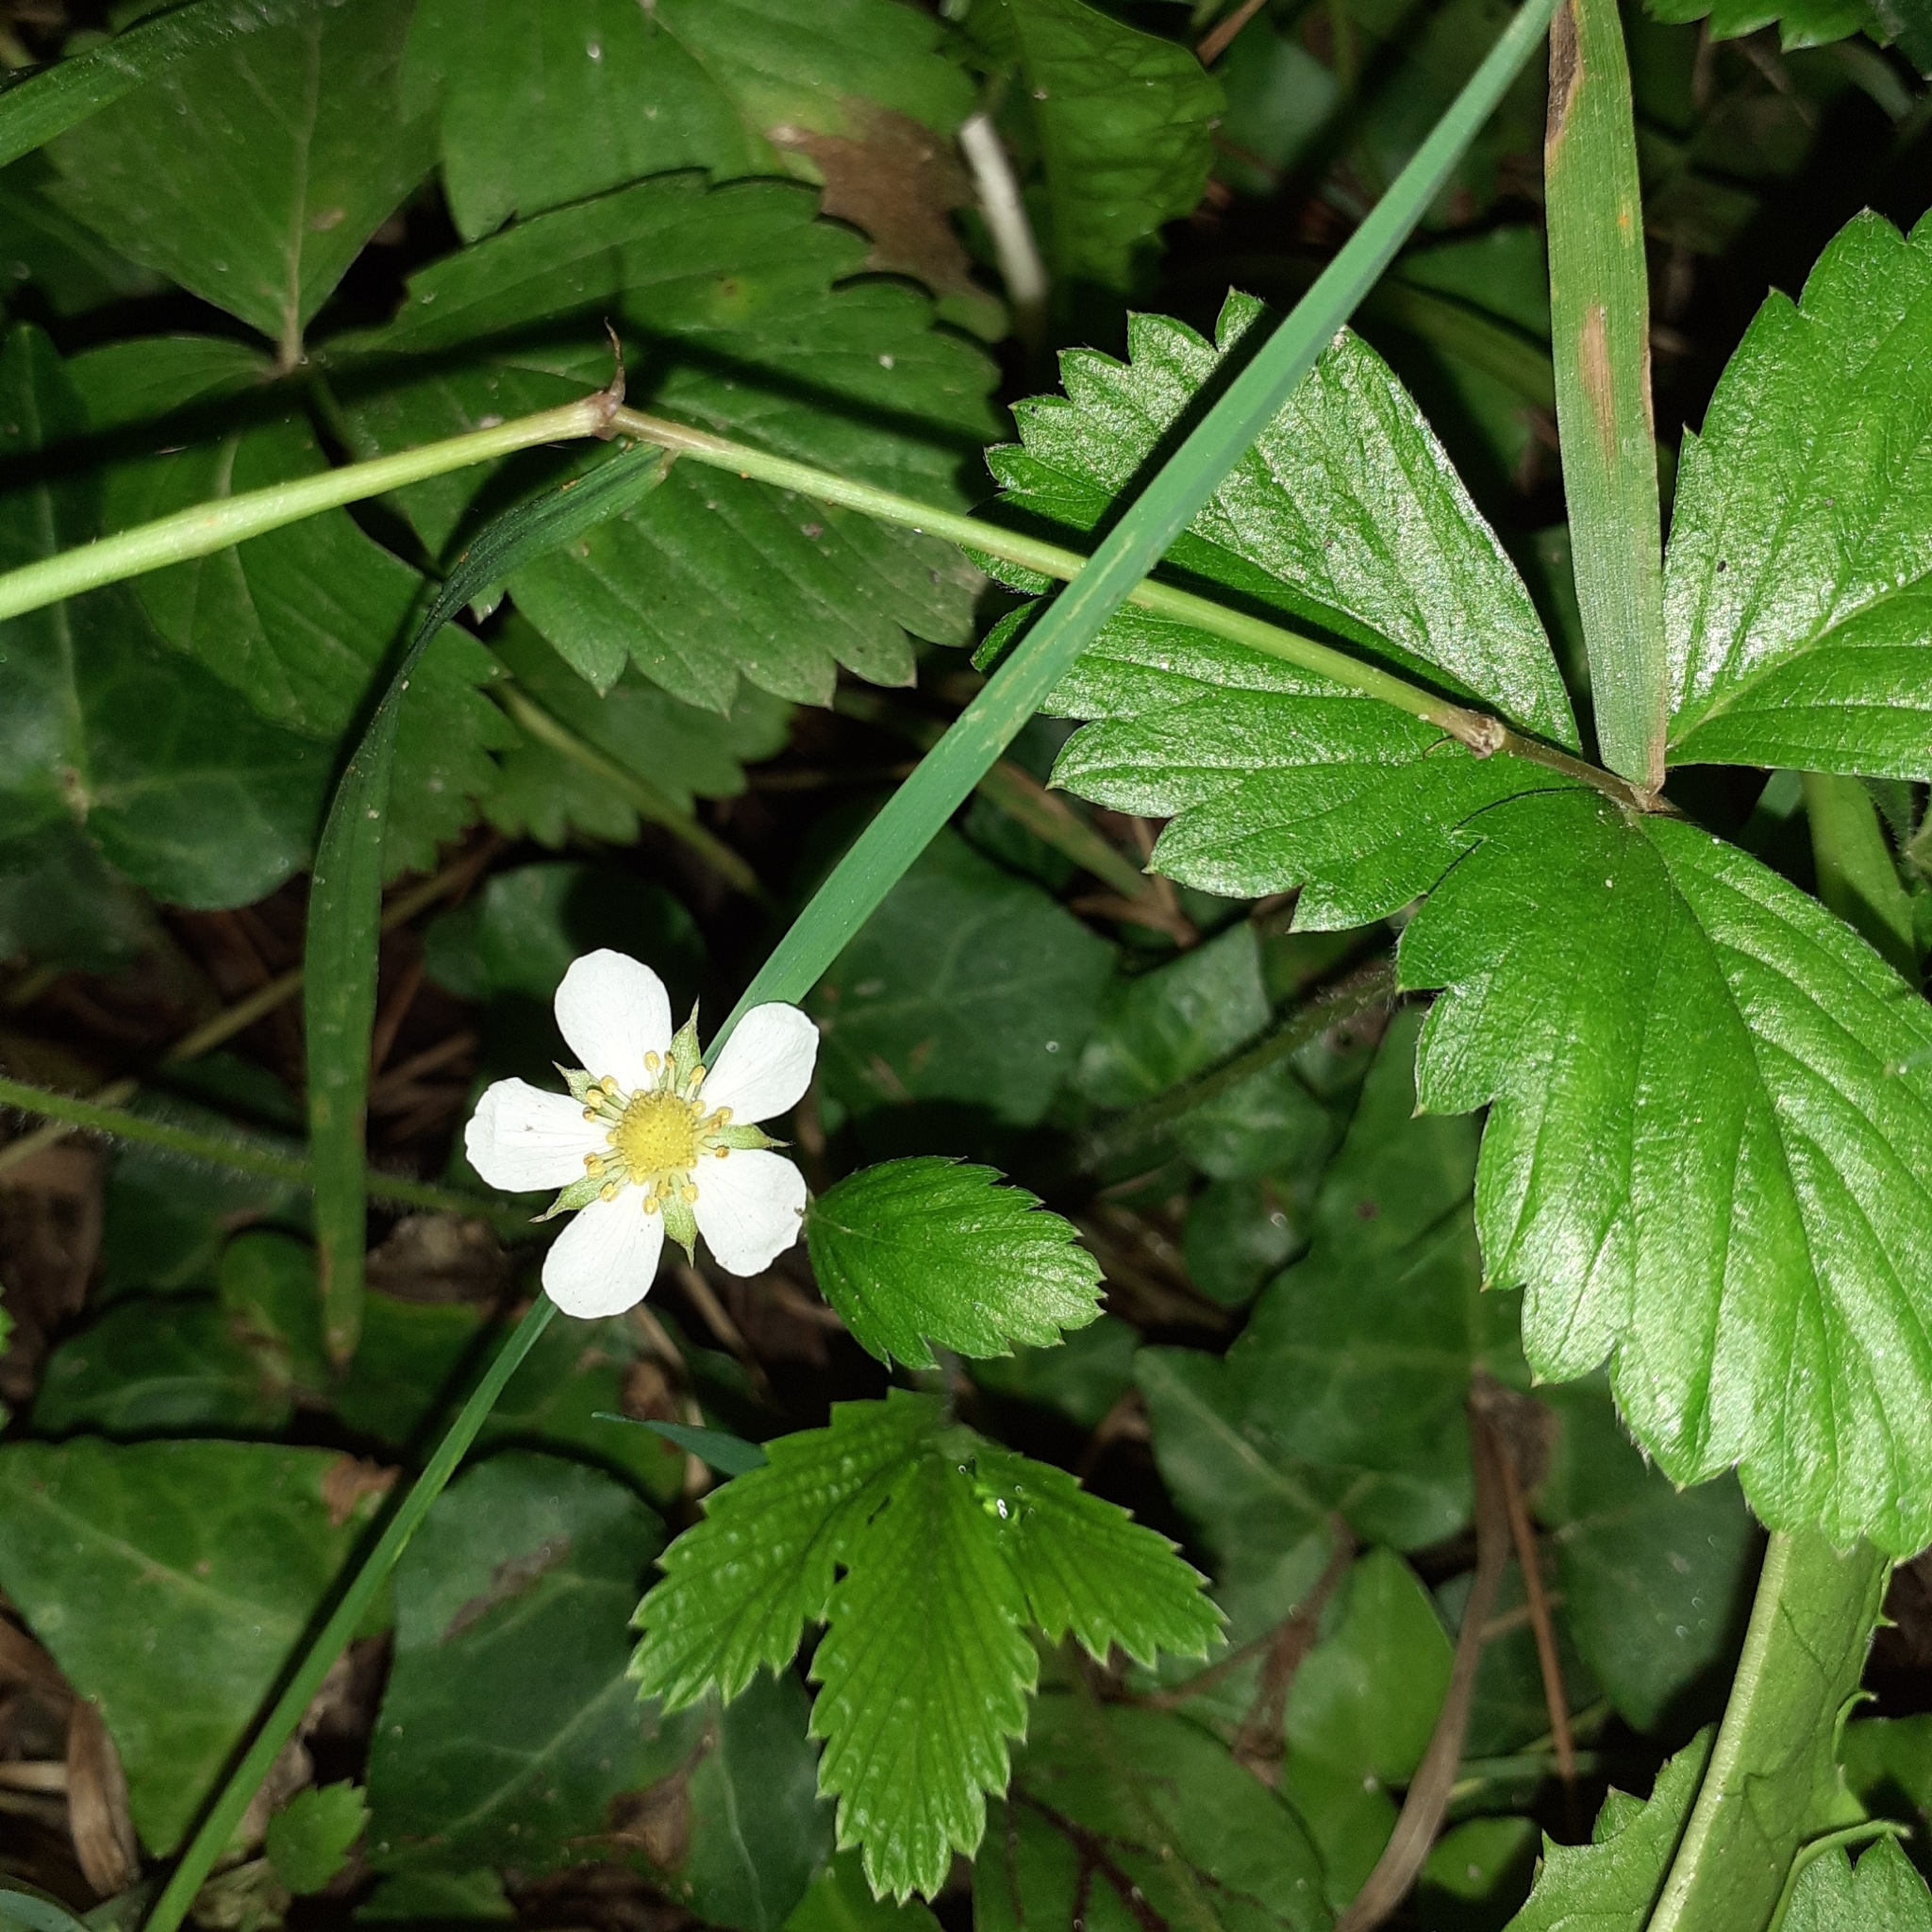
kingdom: Plantae
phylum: Tracheophyta
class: Magnoliopsida
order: Rosales
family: Rosaceae
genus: Fragaria
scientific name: Fragaria vesca
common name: Wild strawberry
